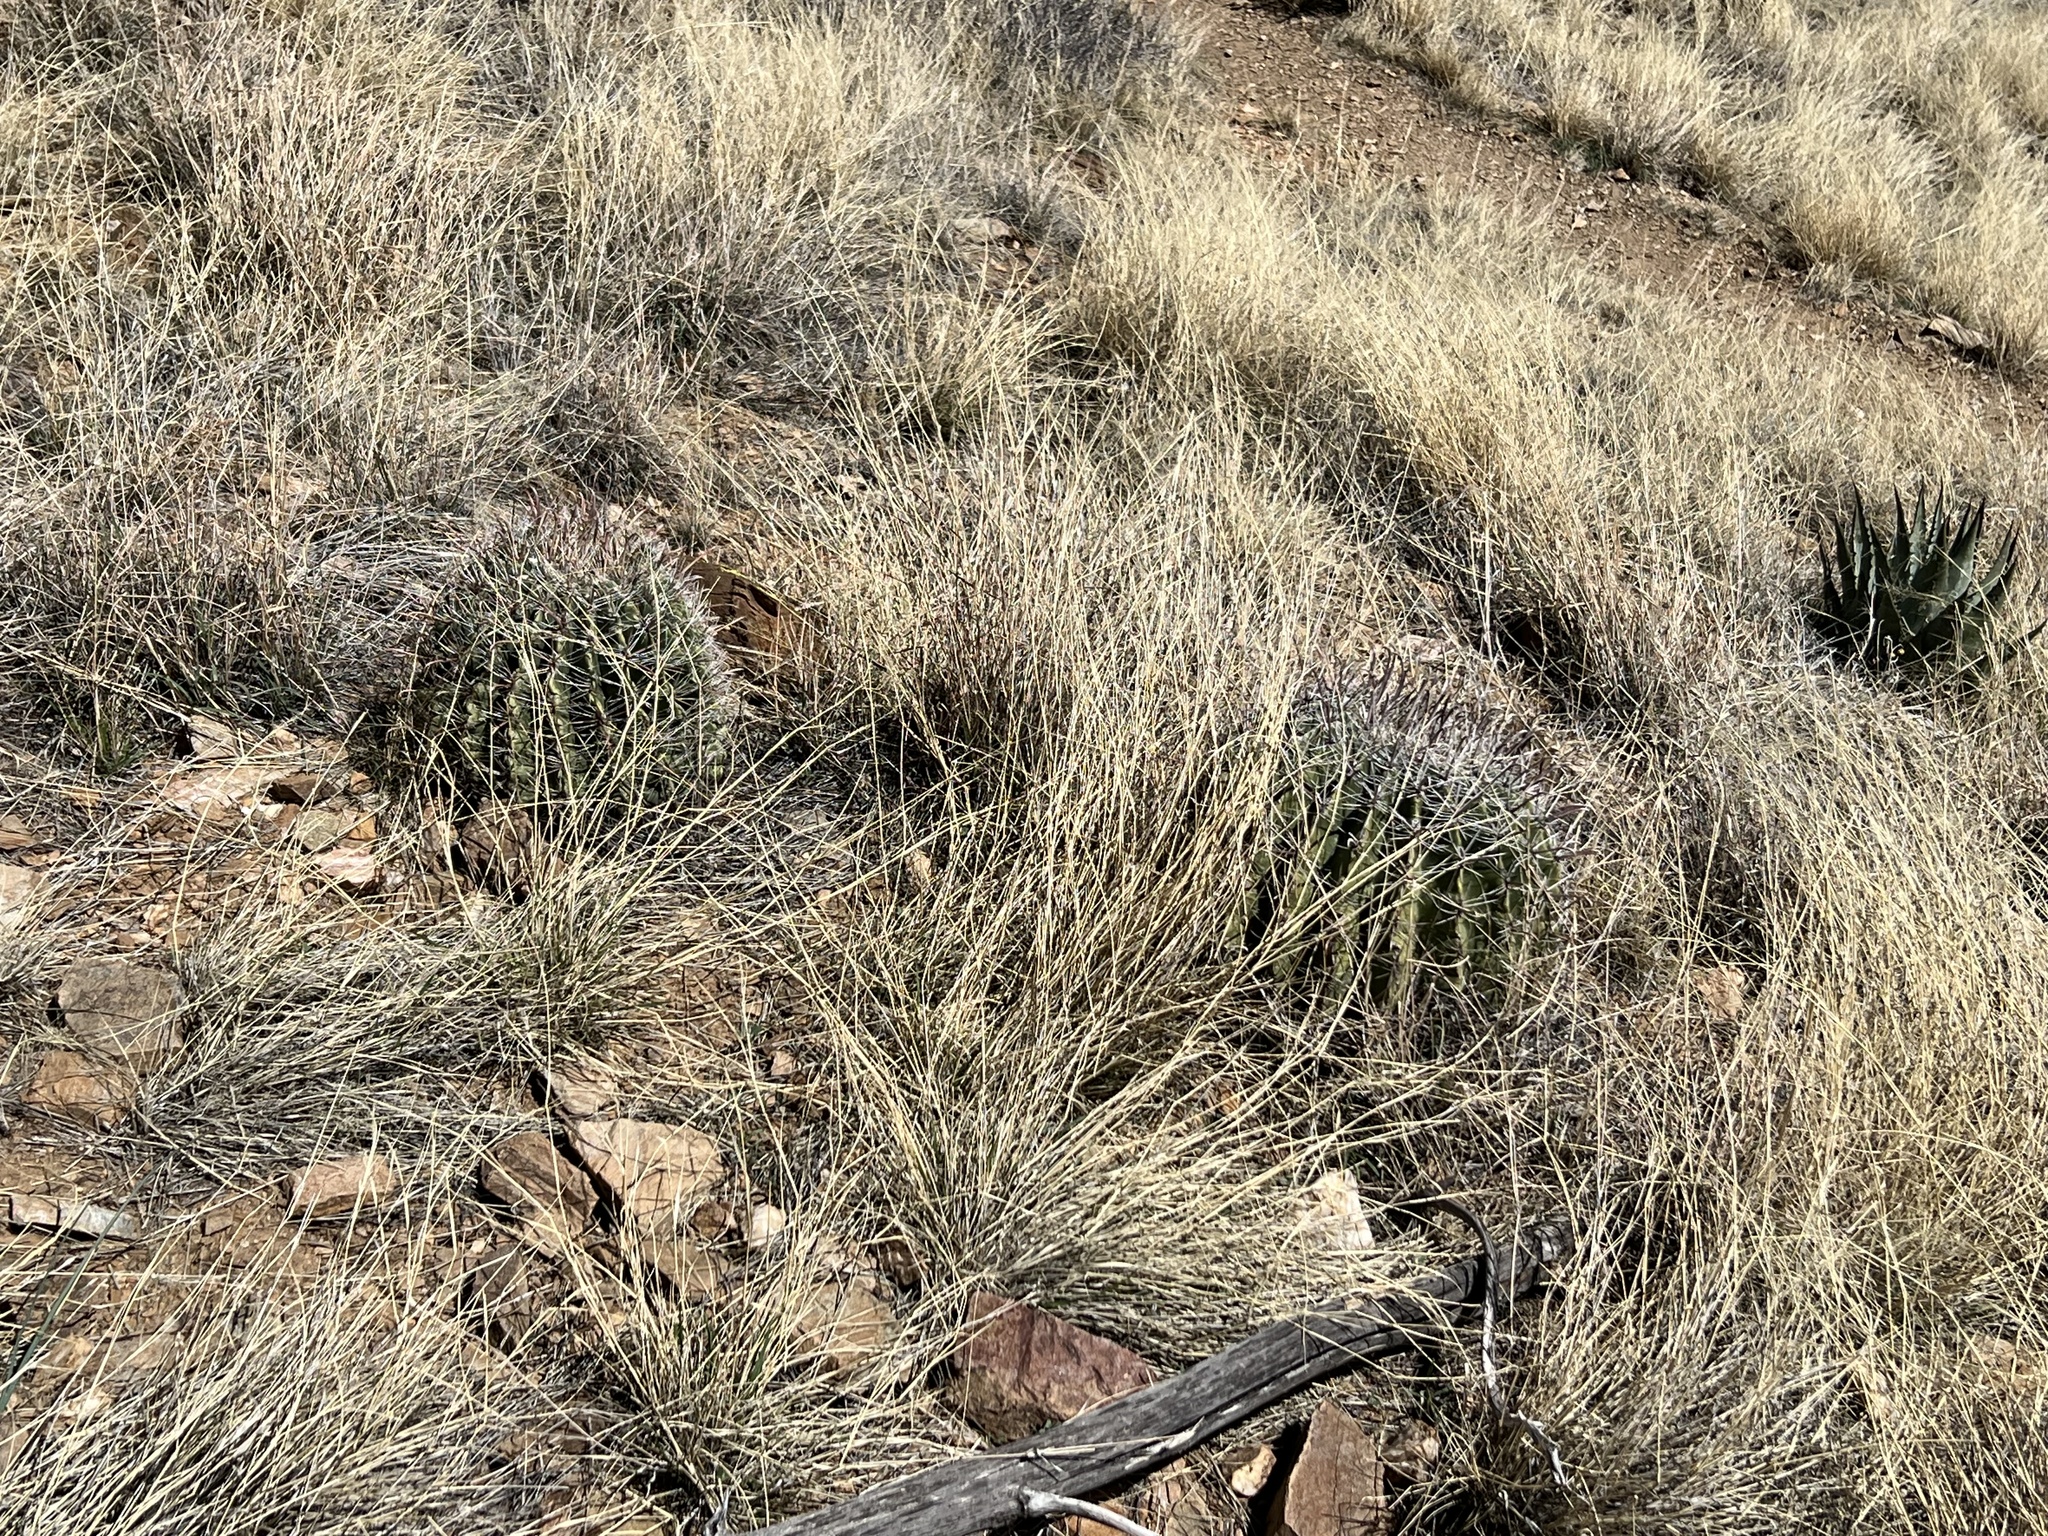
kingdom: Plantae
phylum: Tracheophyta
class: Magnoliopsida
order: Caryophyllales
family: Cactaceae
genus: Ferocactus
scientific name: Ferocactus wislizeni
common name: Candy barrel cactus
